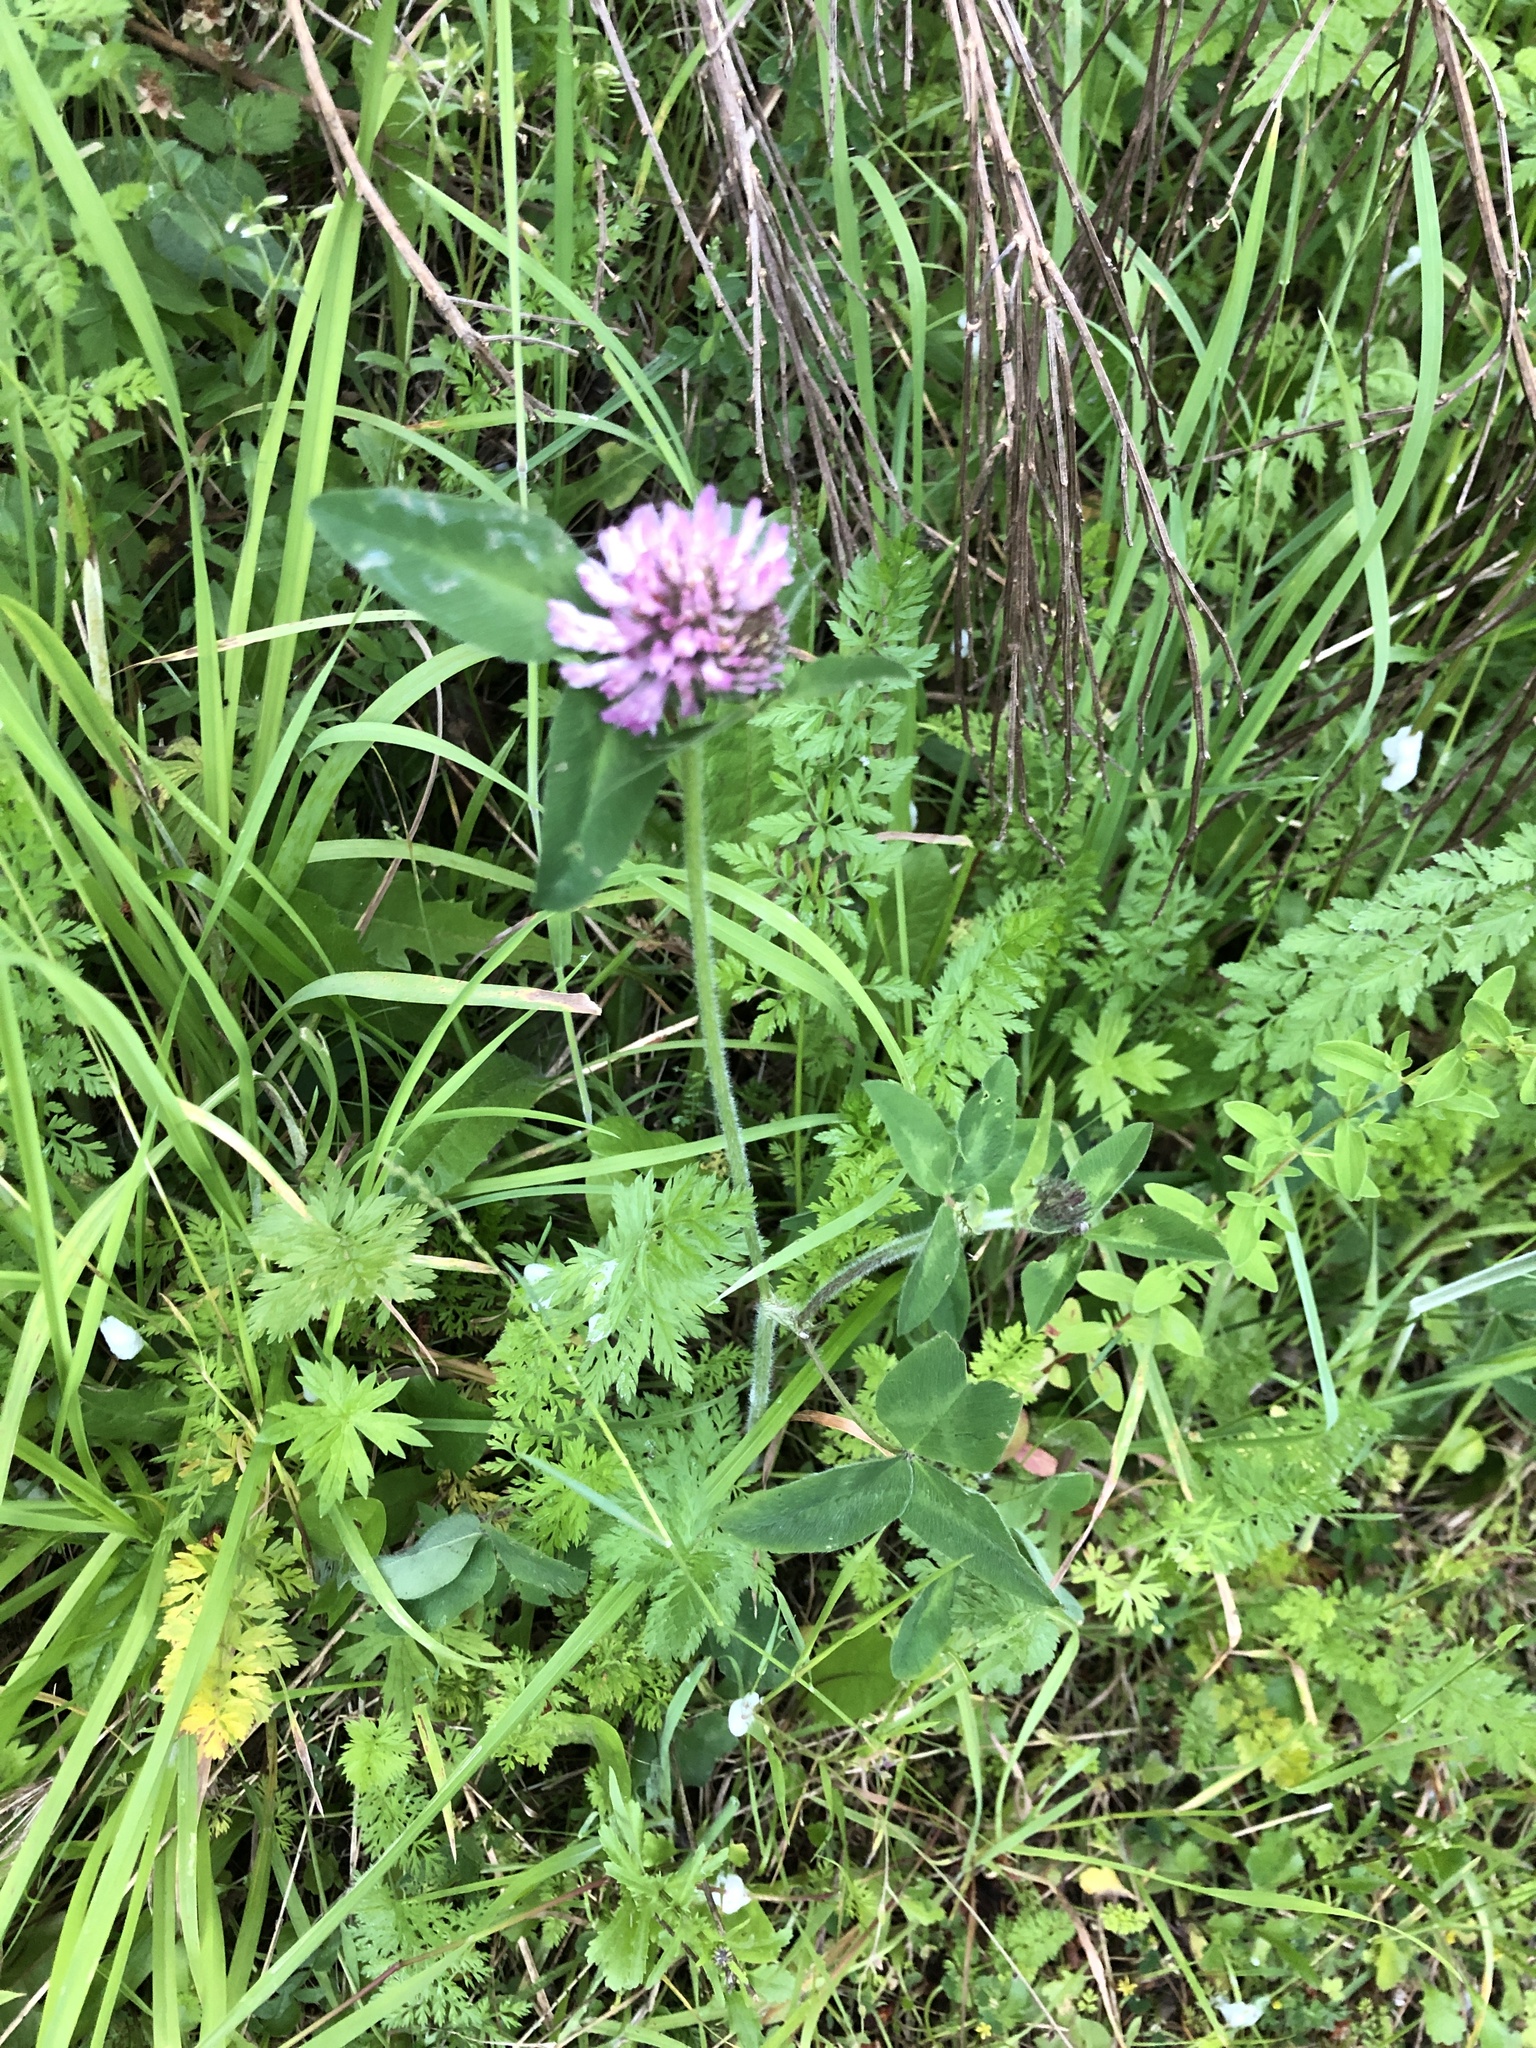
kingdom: Plantae
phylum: Tracheophyta
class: Magnoliopsida
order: Fabales
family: Fabaceae
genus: Trifolium
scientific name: Trifolium pratense
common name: Red clover
